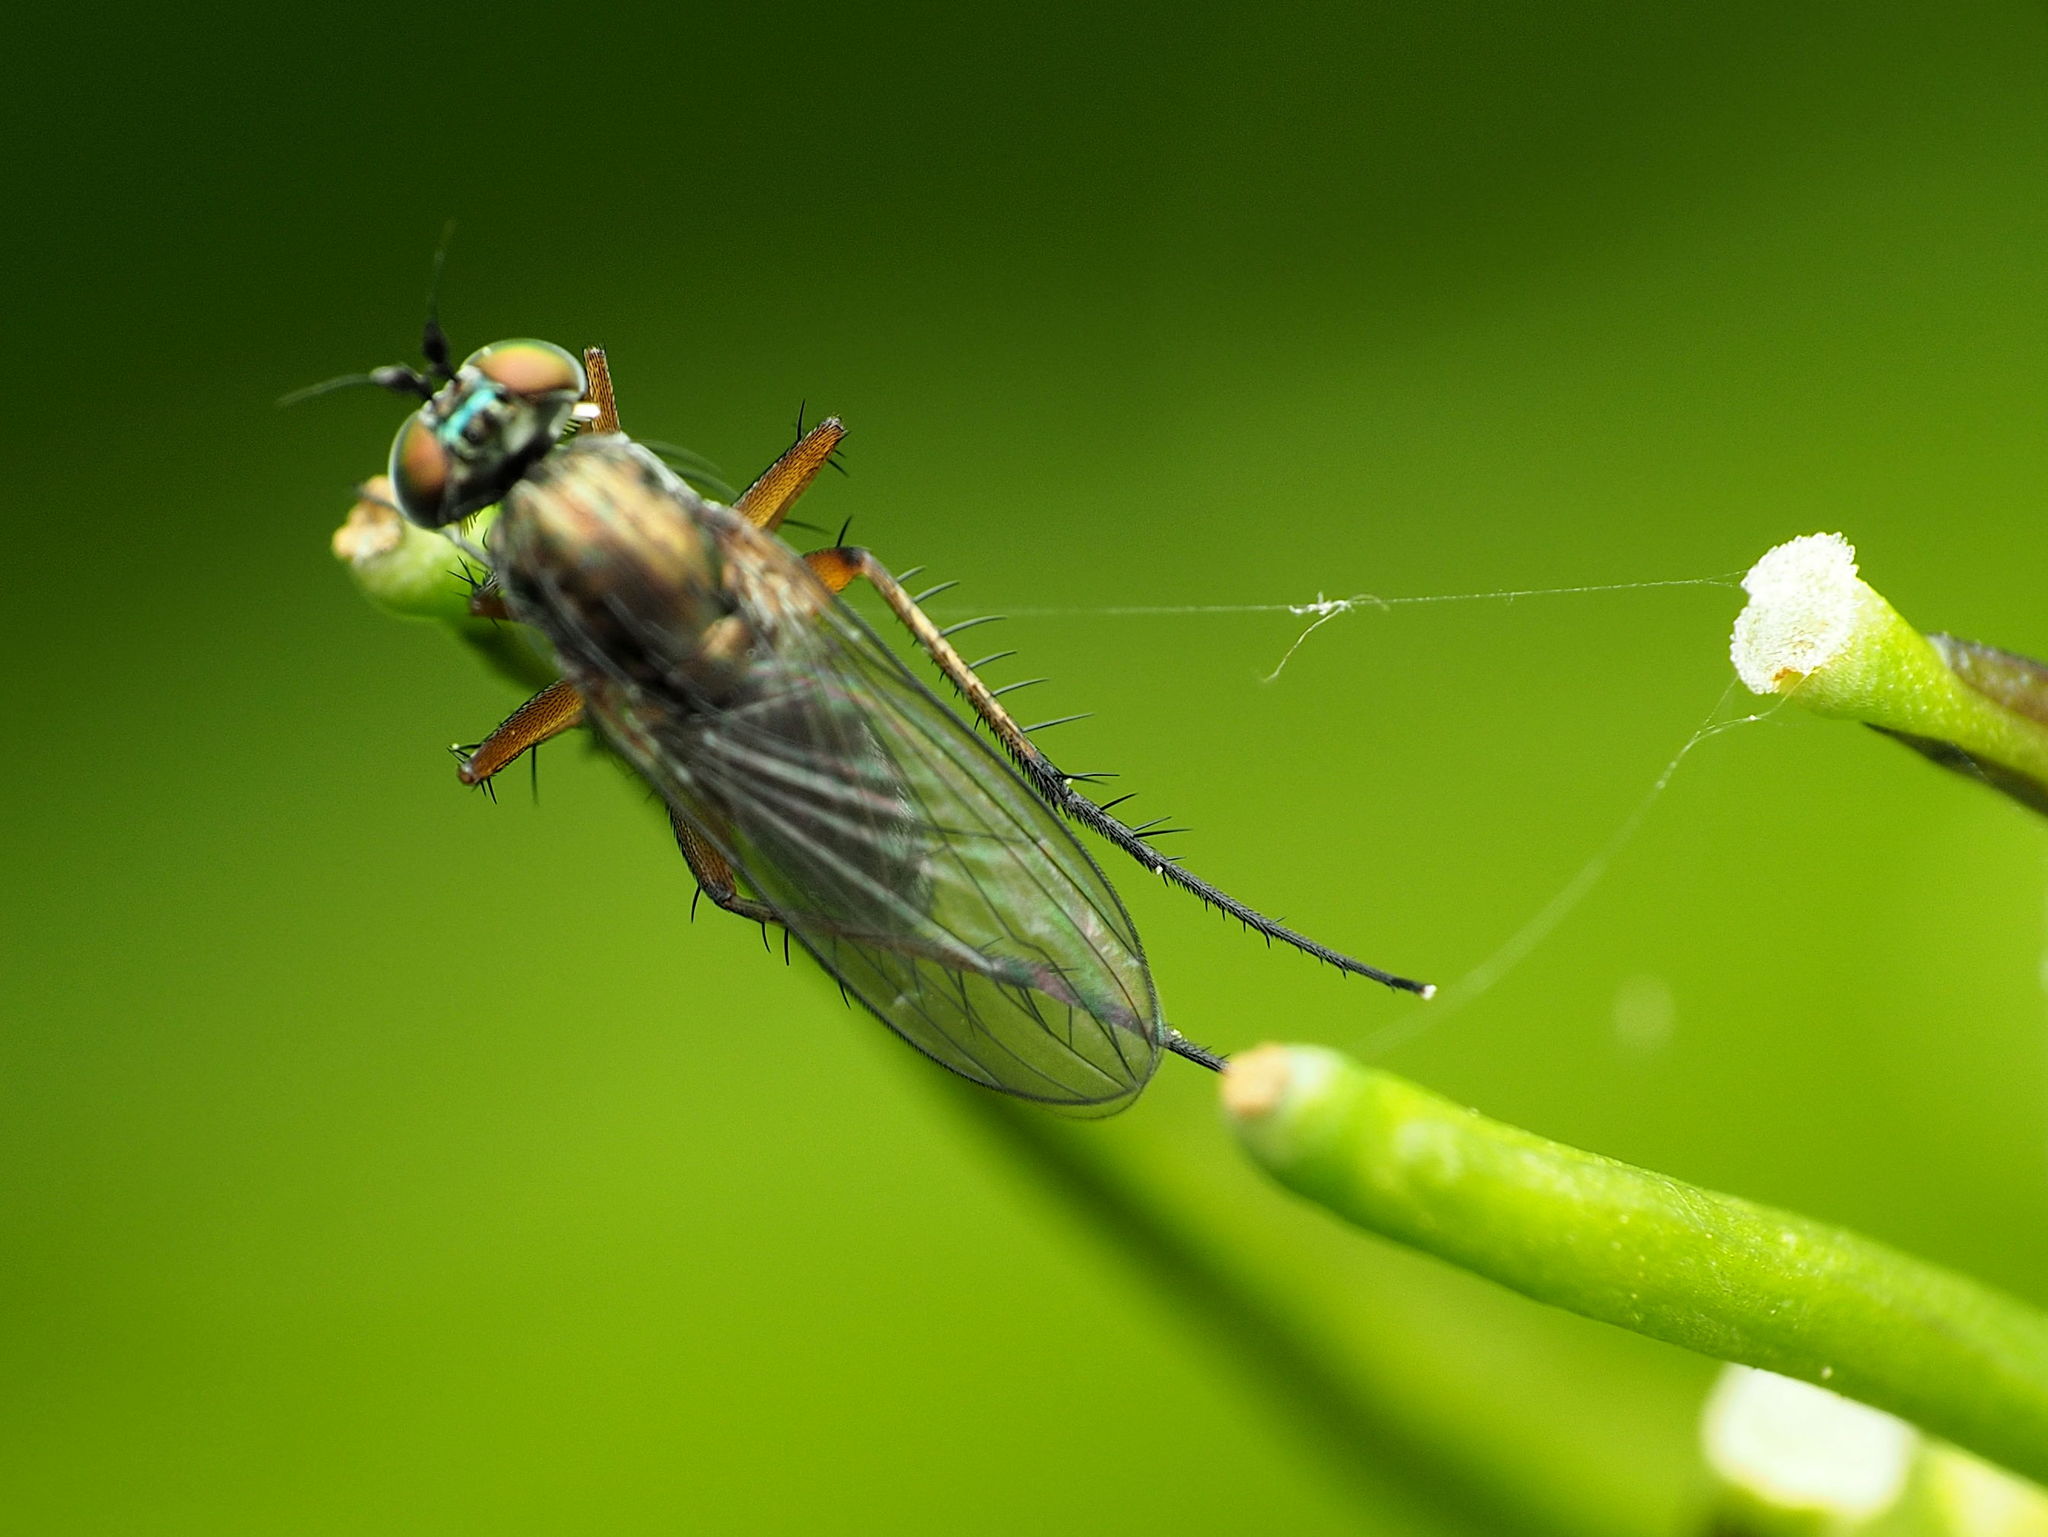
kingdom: Animalia
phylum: Arthropoda
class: Insecta
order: Diptera
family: Dolichopodidae
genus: Dolichopus
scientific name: Dolichopus comatus
